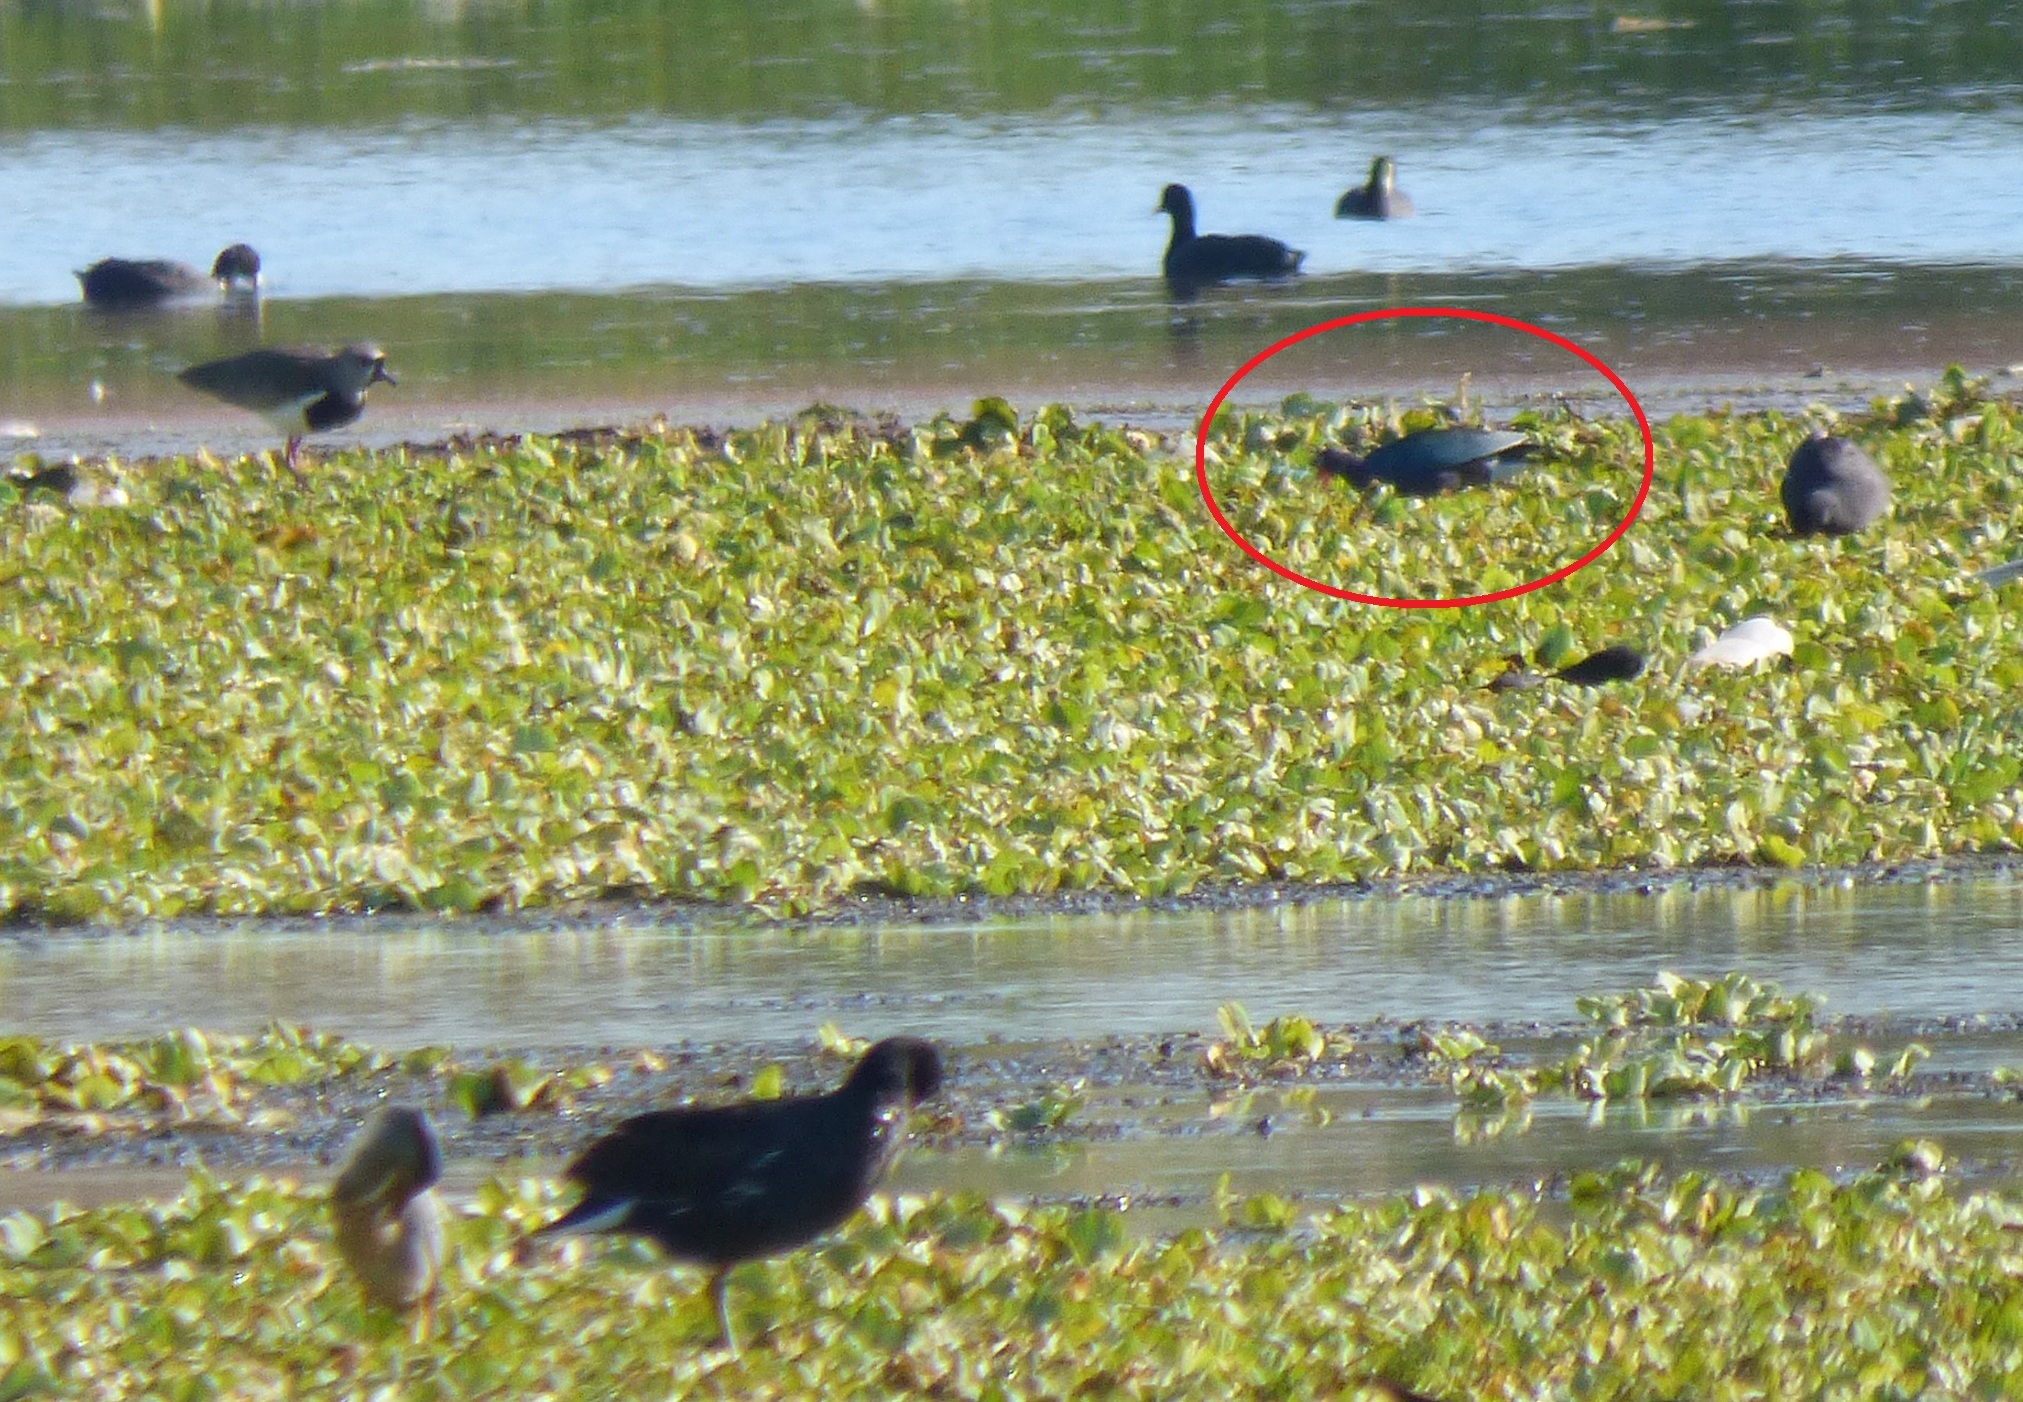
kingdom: Animalia
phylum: Chordata
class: Aves
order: Gruiformes
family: Rallidae
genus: Porphyrio
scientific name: Porphyrio martinica
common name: Purple gallinule
